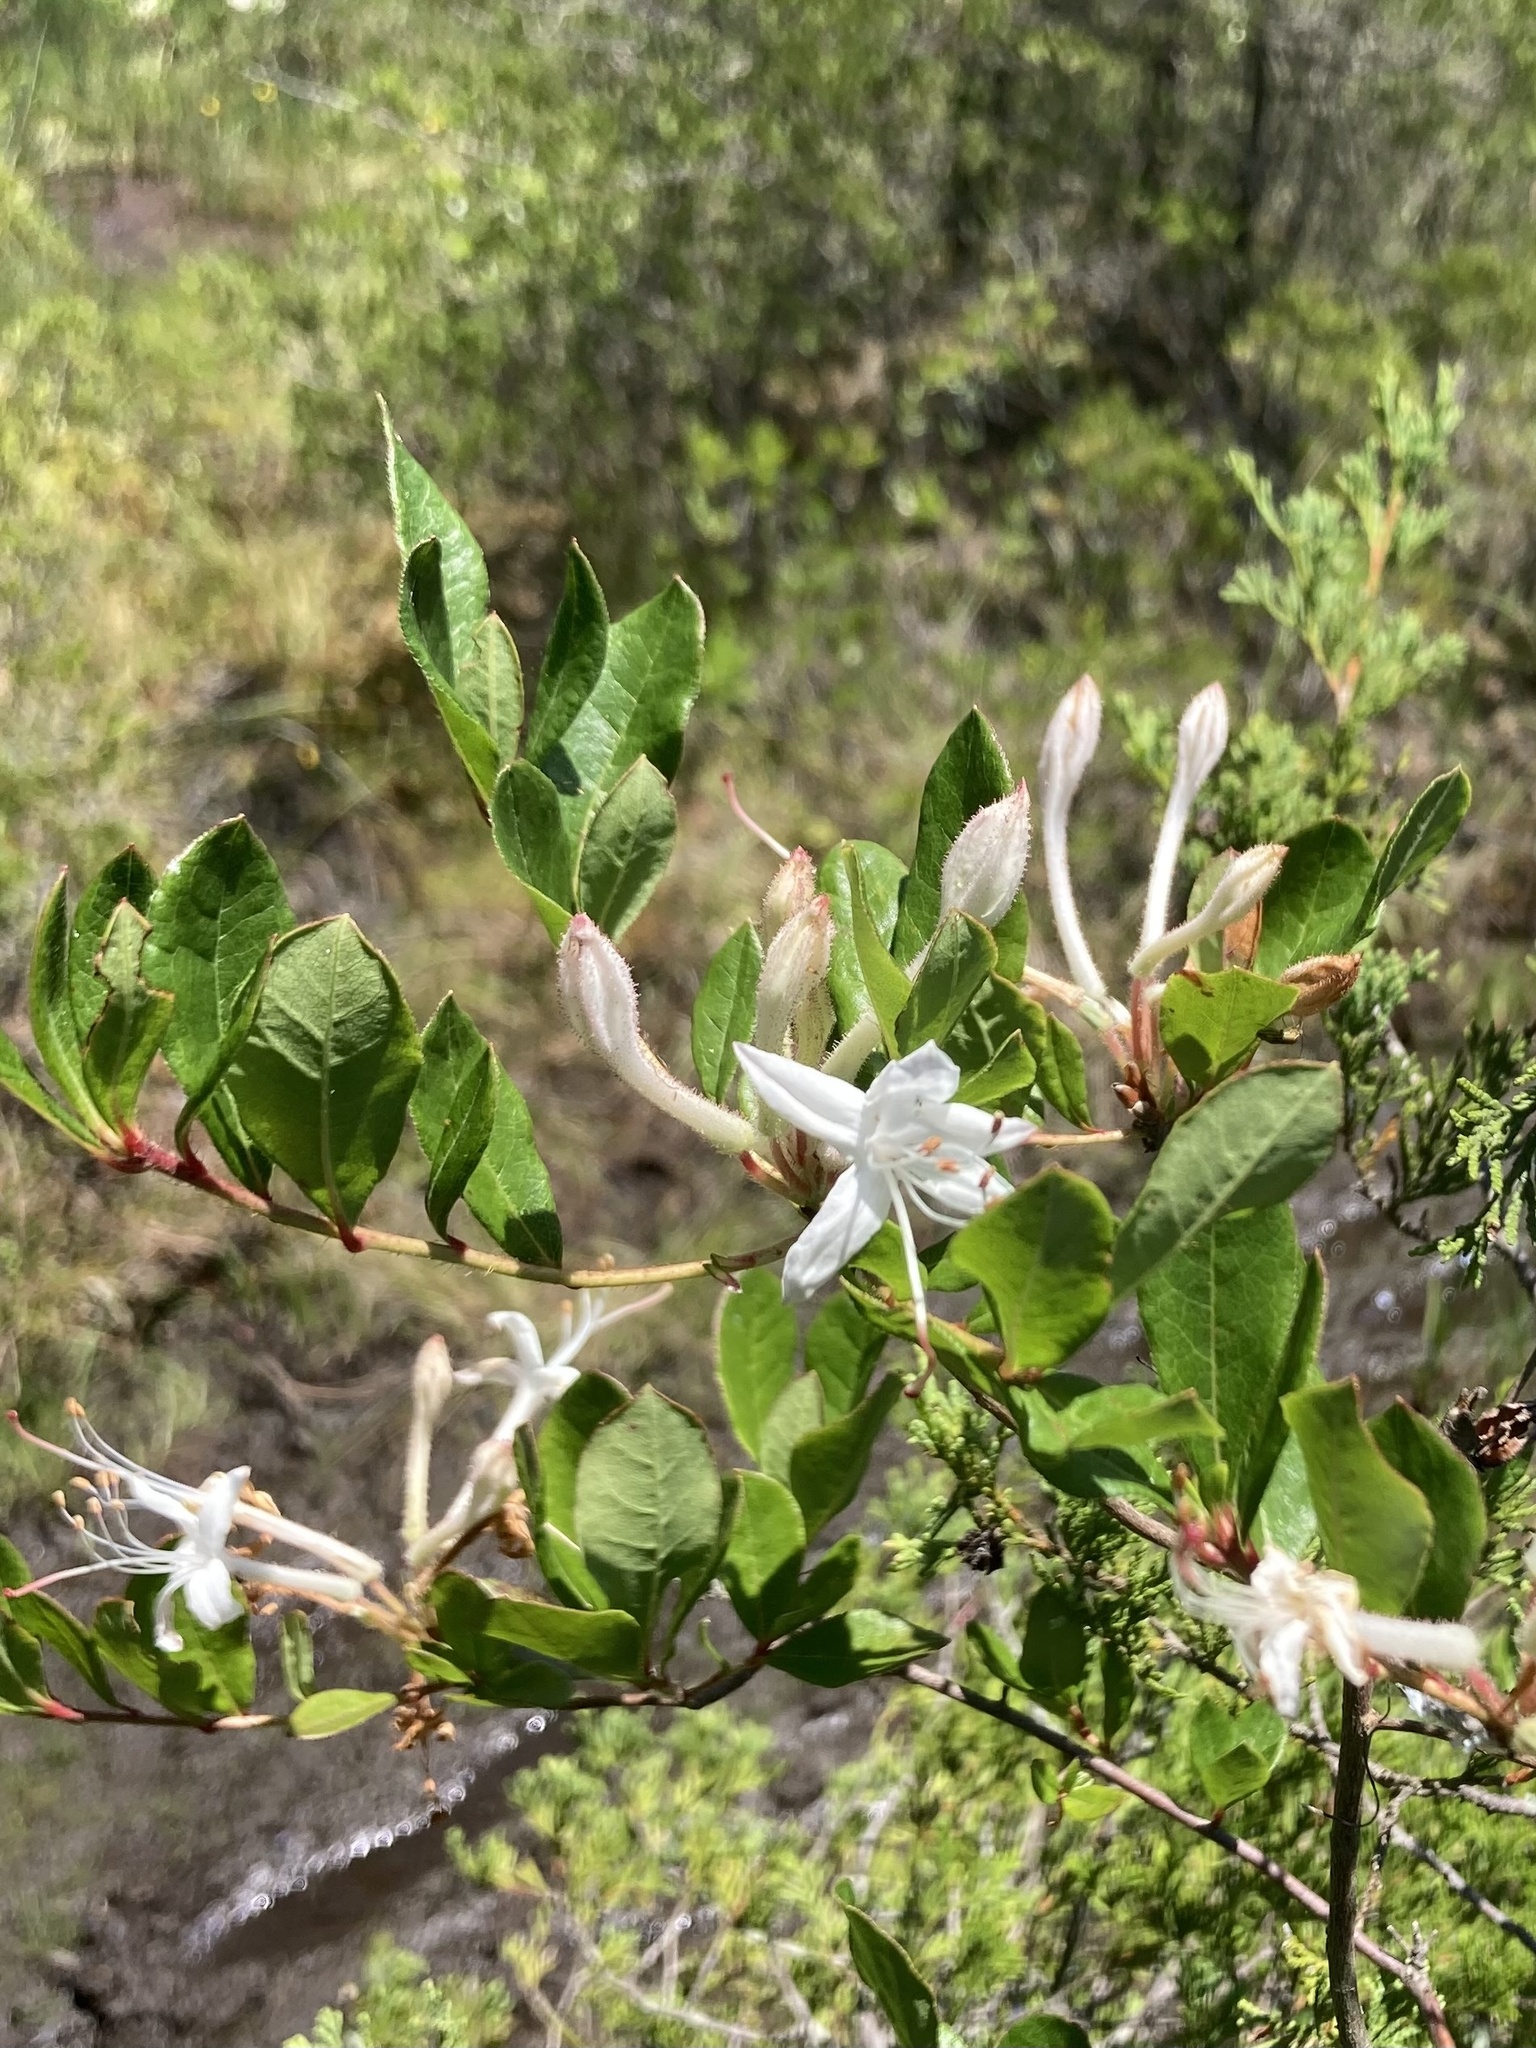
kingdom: Plantae
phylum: Tracheophyta
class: Magnoliopsida
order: Ericales
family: Ericaceae
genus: Rhododendron
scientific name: Rhododendron viscosum
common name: Clammy azalea
